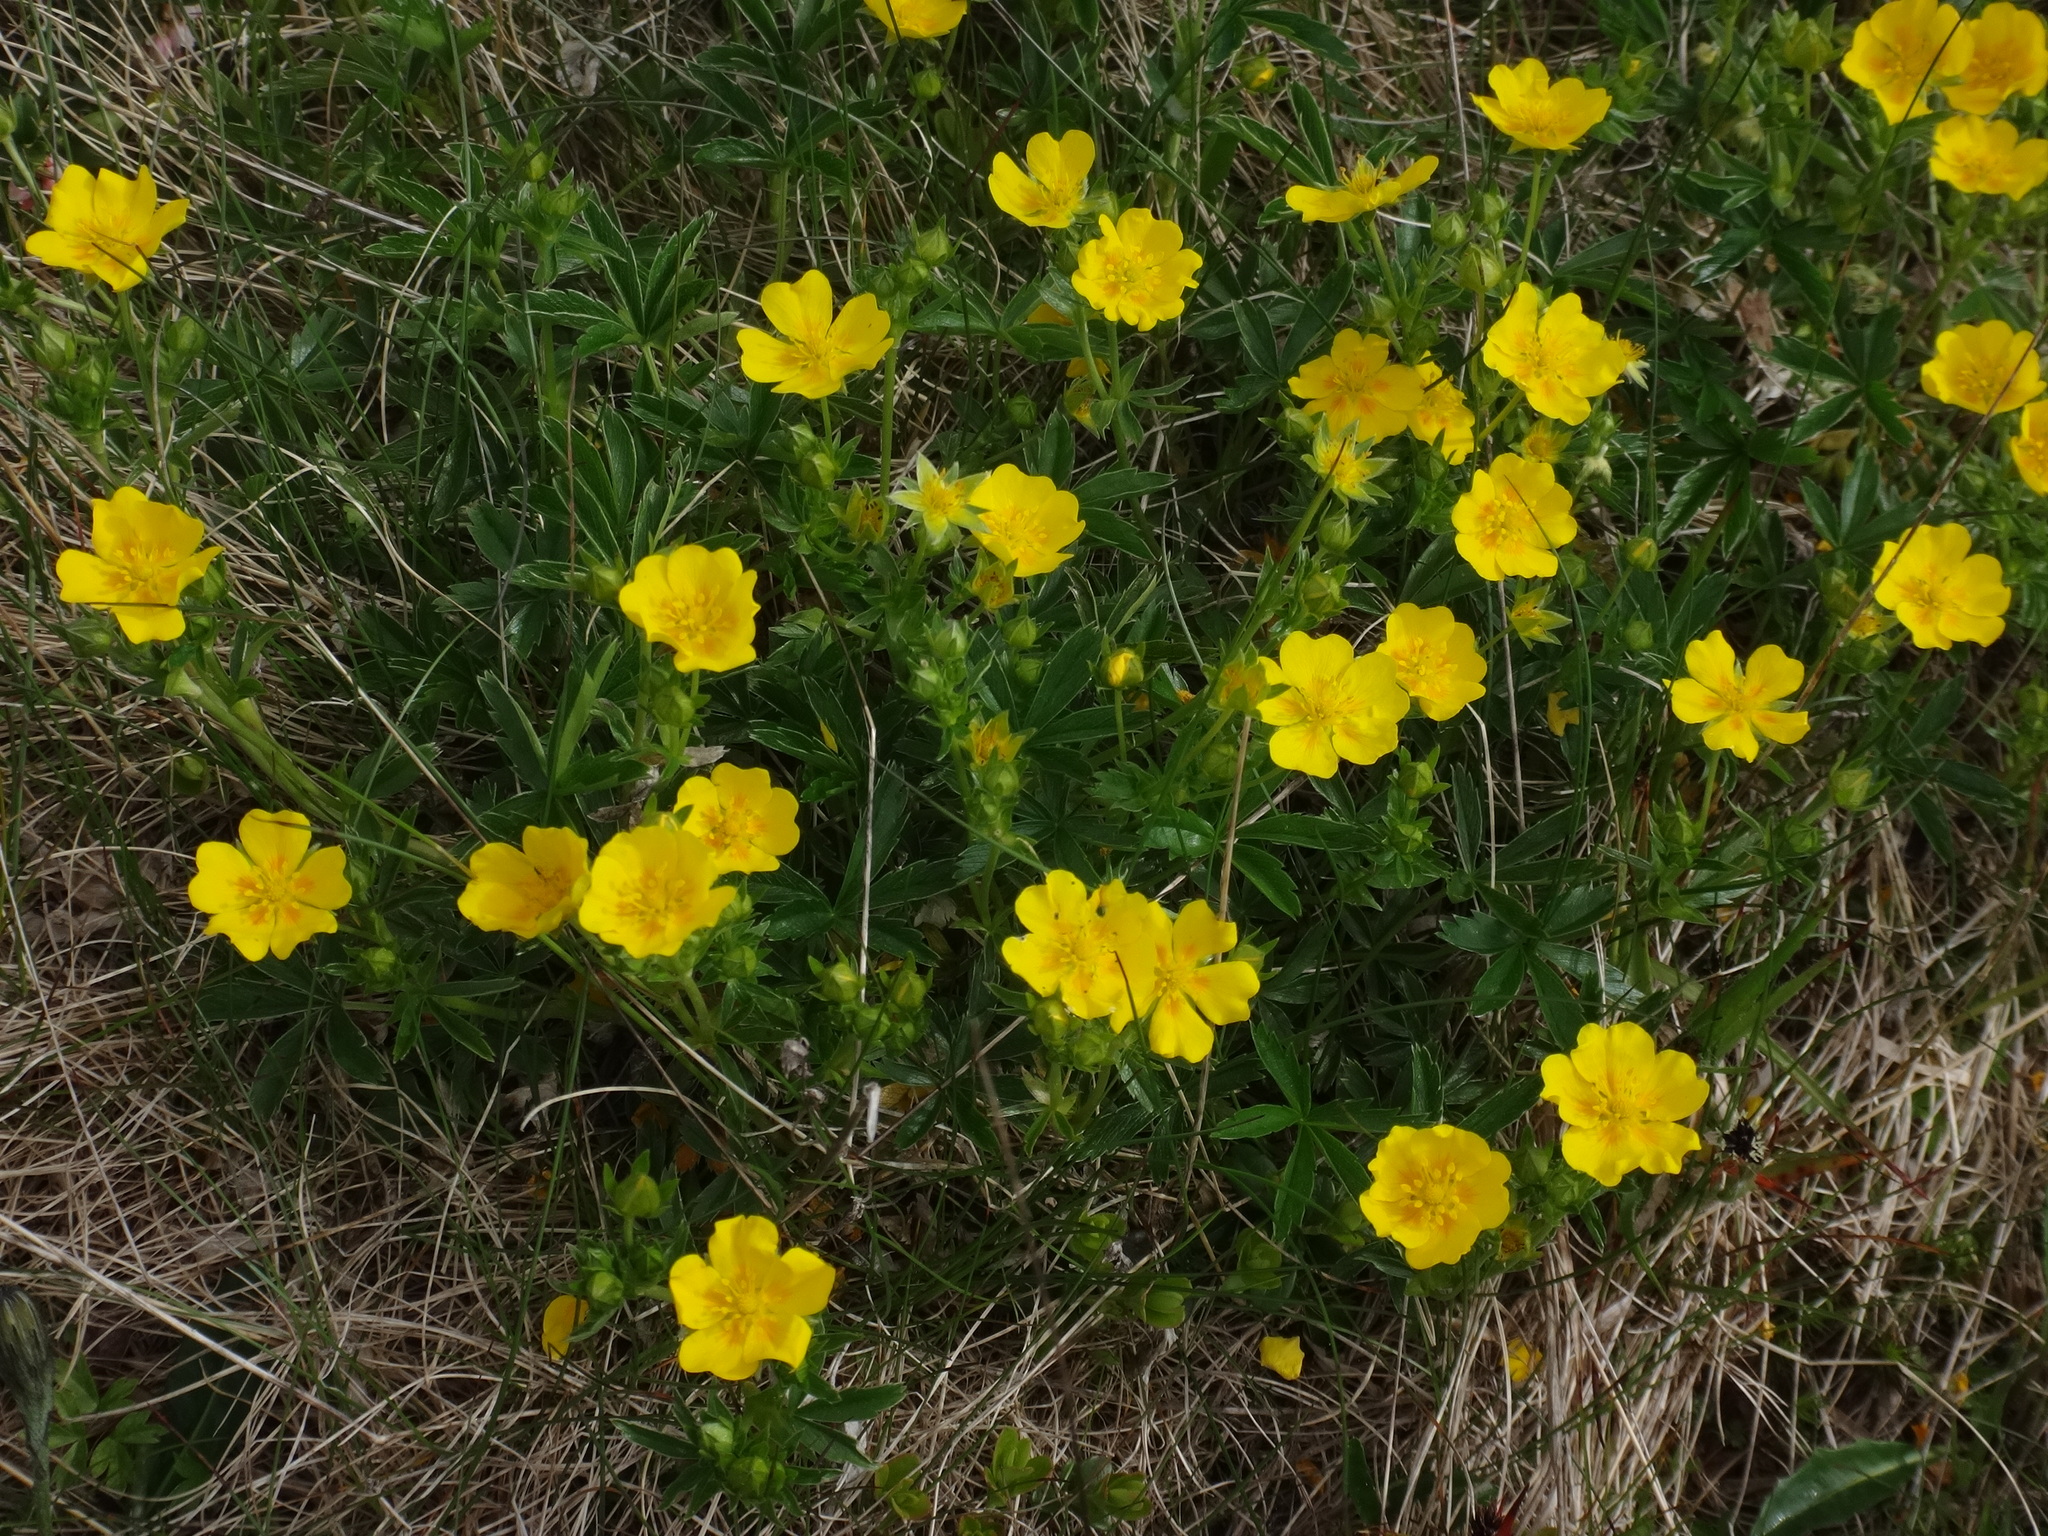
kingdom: Plantae
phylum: Tracheophyta
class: Magnoliopsida
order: Rosales
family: Rosaceae
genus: Potentilla
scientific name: Potentilla aurea
